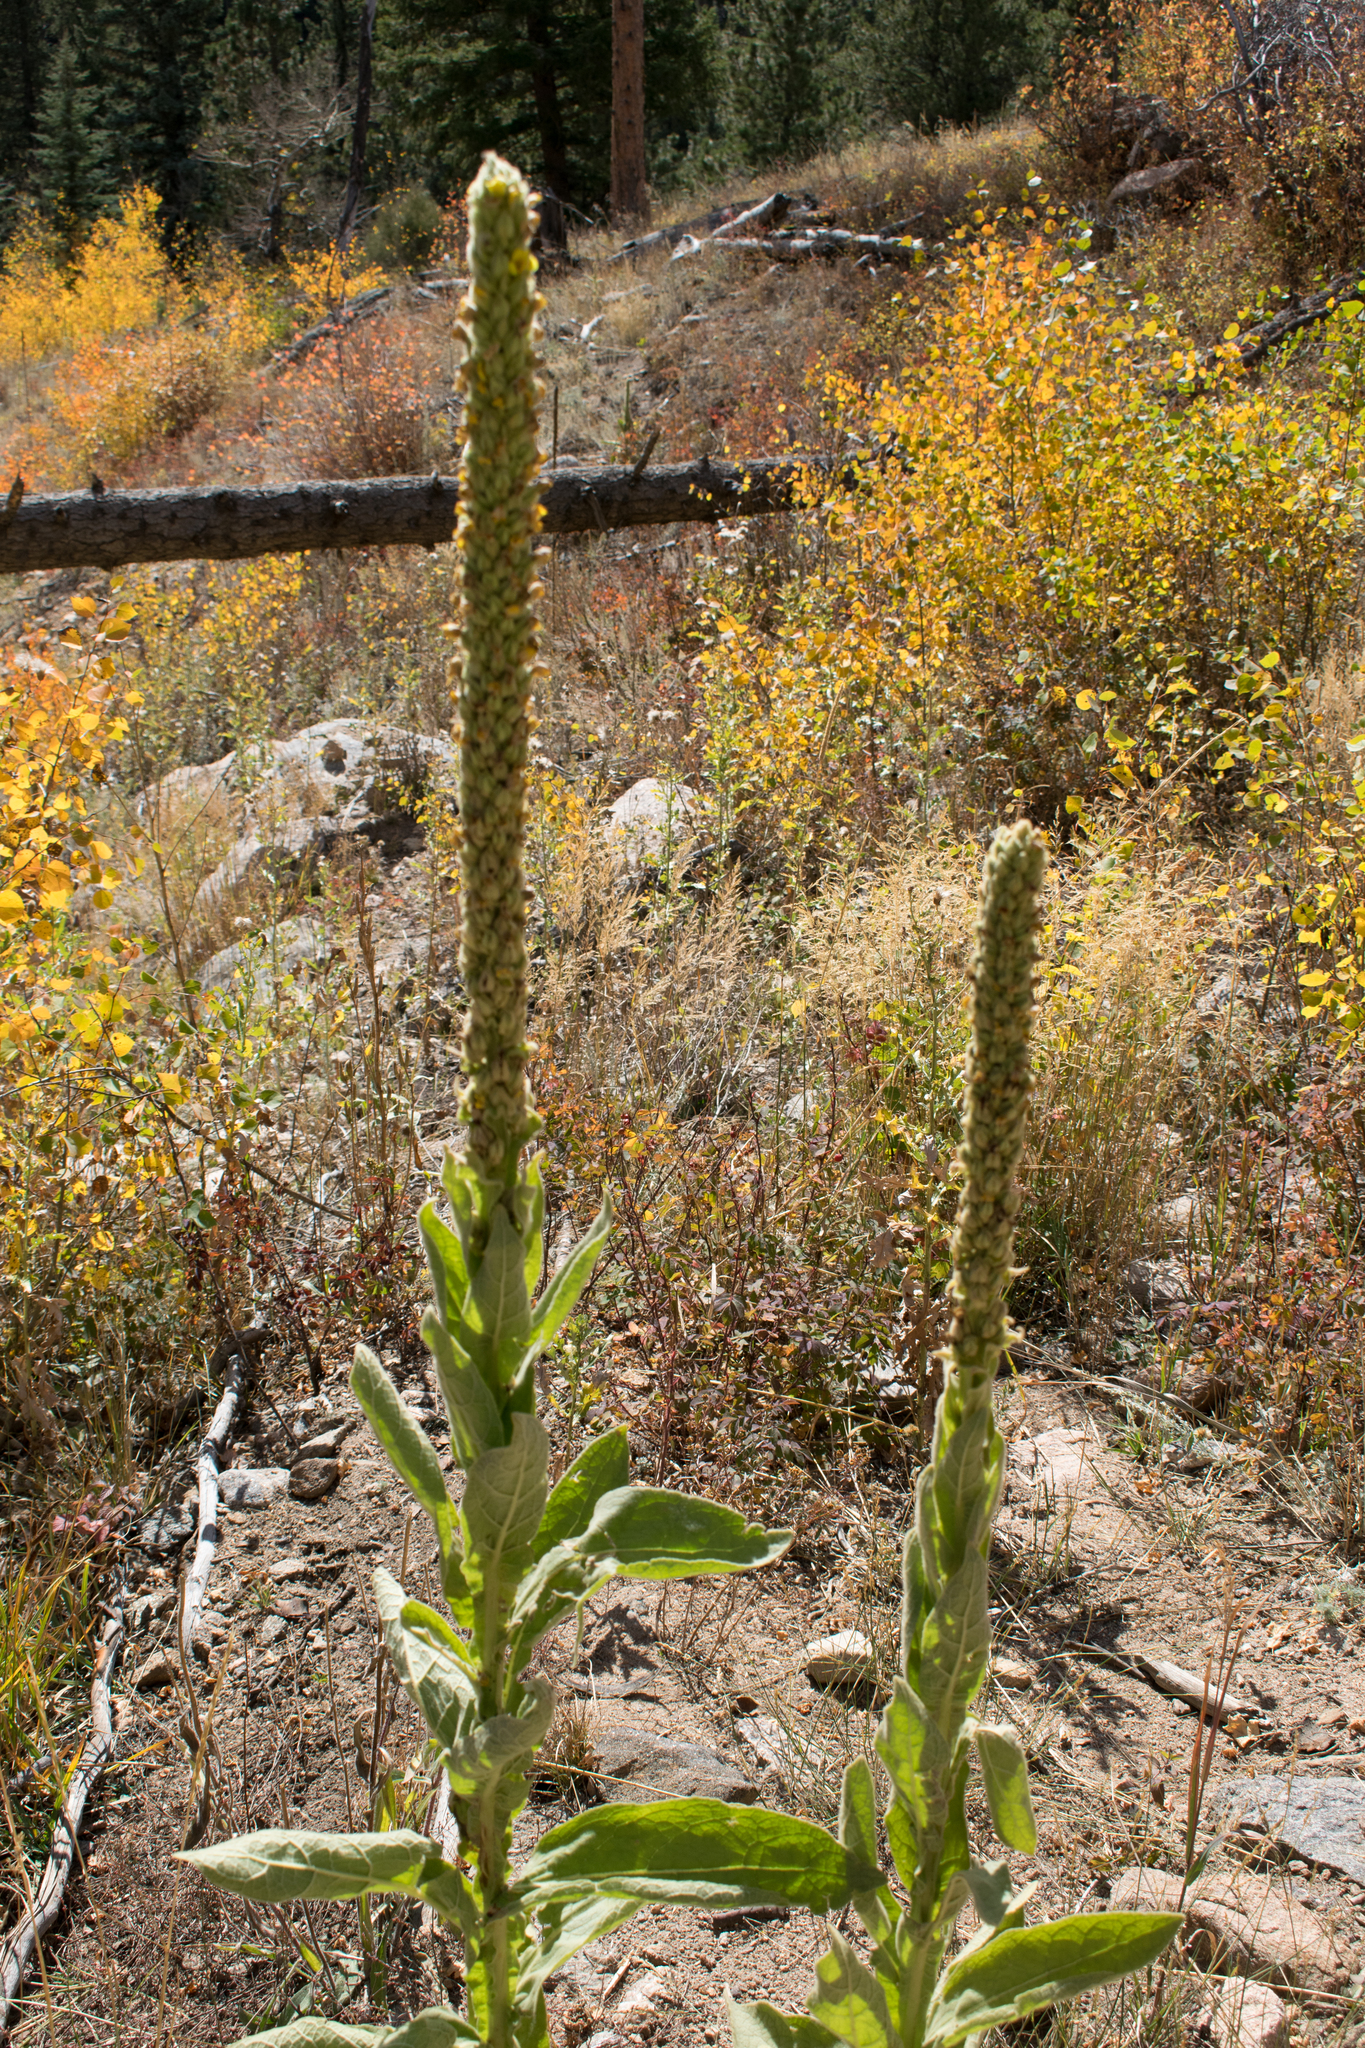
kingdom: Plantae
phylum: Tracheophyta
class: Magnoliopsida
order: Lamiales
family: Scrophulariaceae
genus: Verbascum
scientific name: Verbascum thapsus
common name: Common mullein
